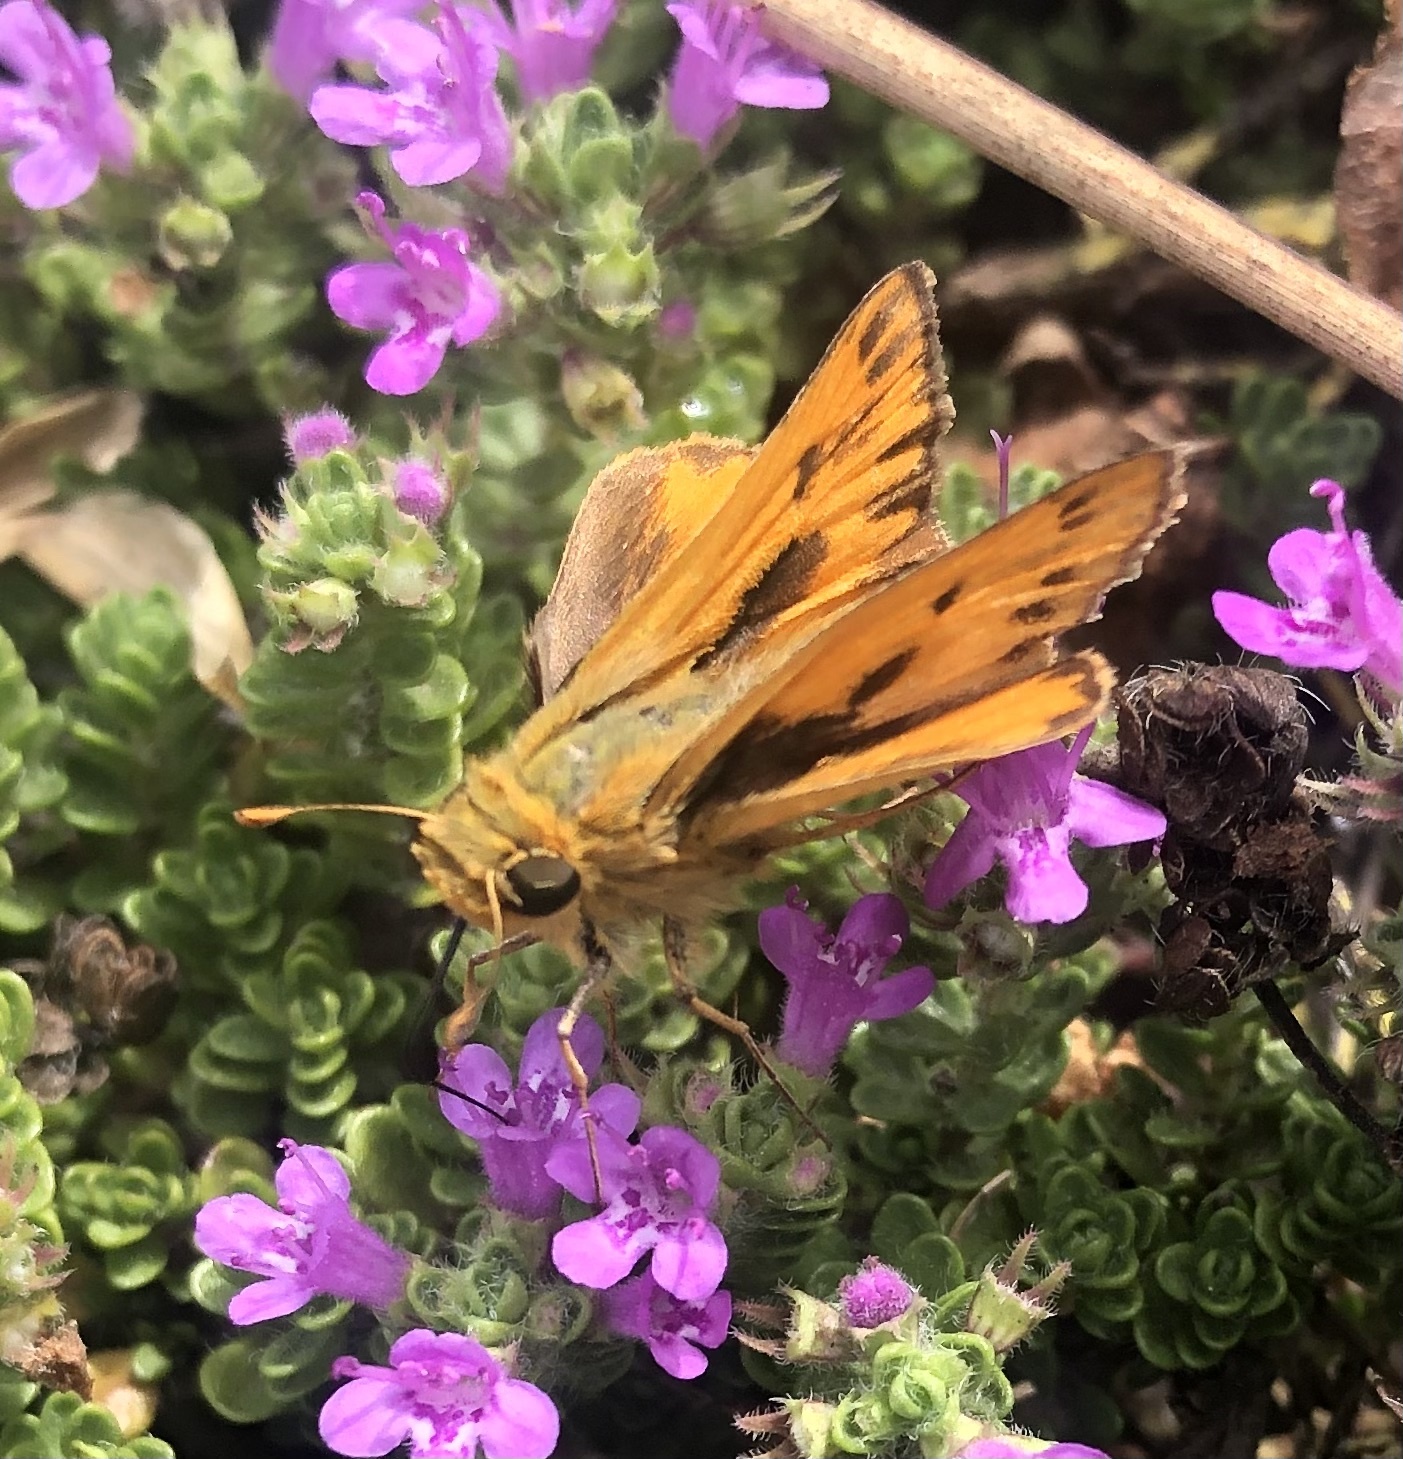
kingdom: Animalia
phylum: Arthropoda
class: Insecta
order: Lepidoptera
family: Hesperiidae
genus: Hylephila
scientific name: Hylephila phyleus
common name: Fiery skipper
